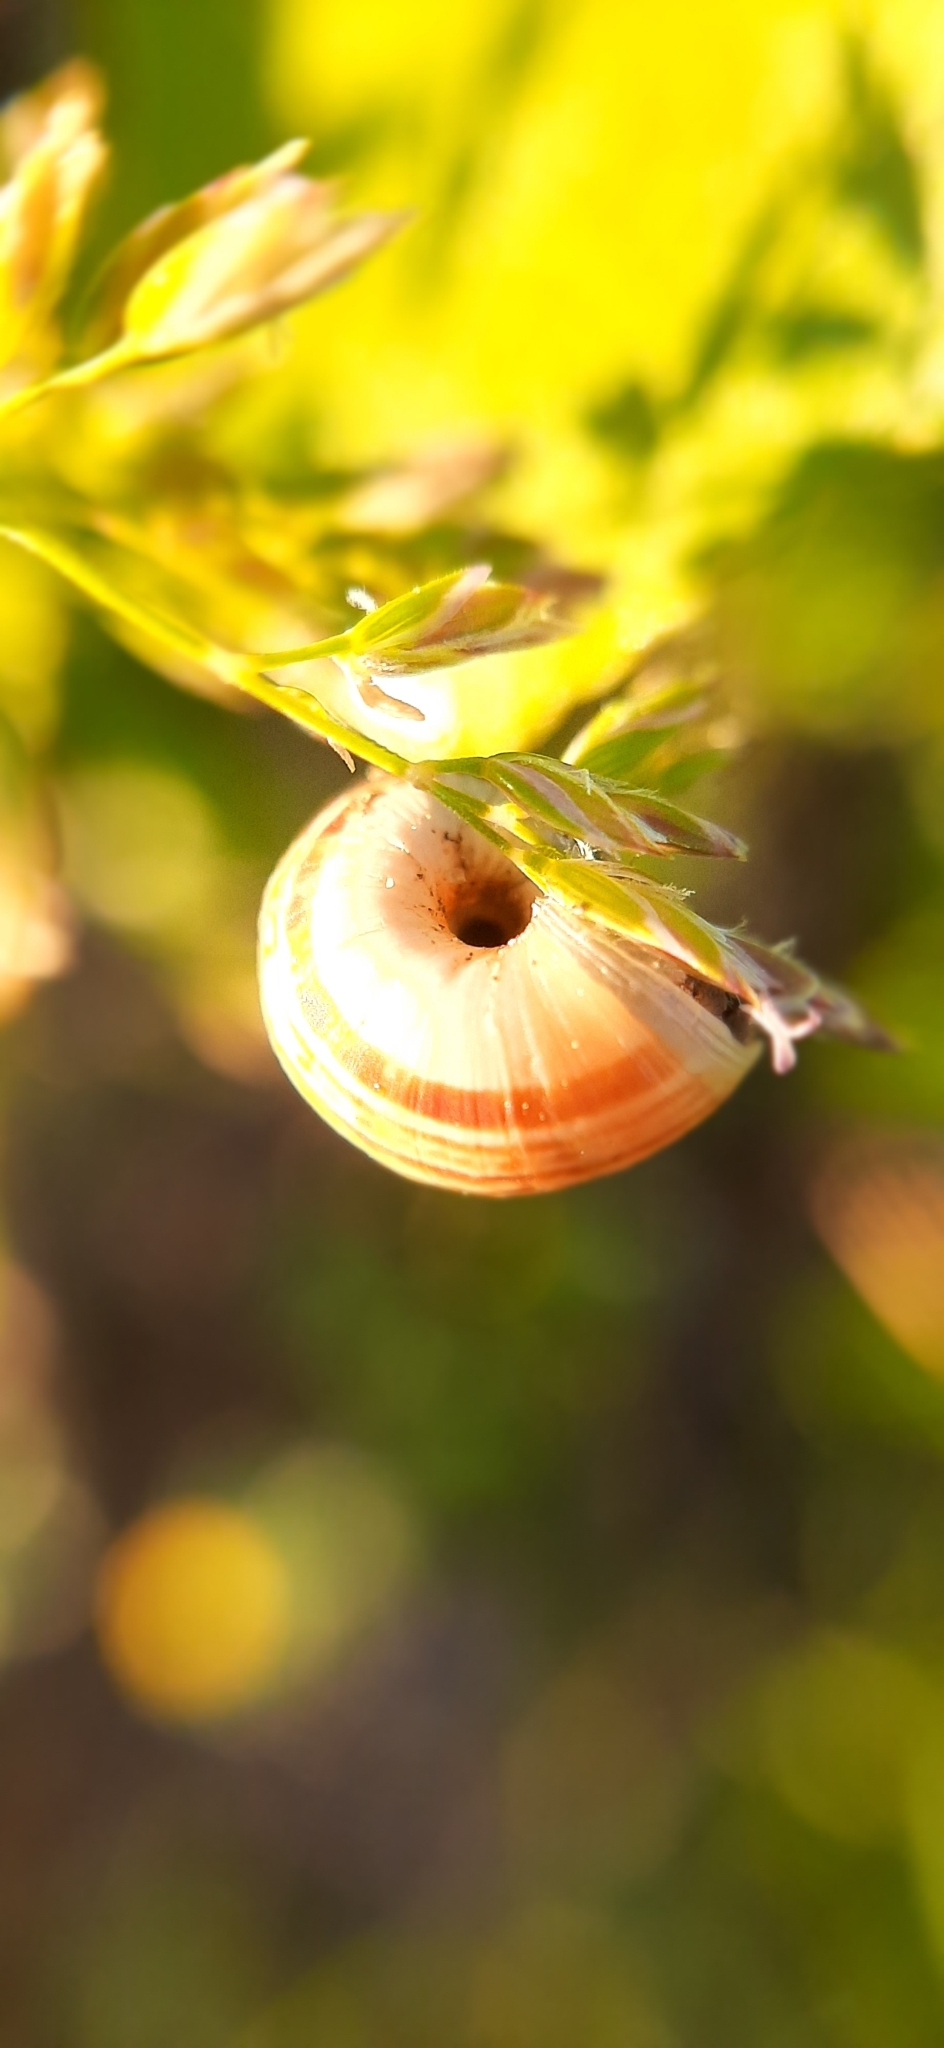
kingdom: Animalia
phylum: Mollusca
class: Gastropoda
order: Stylommatophora
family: Geomitridae
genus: Xerolenta
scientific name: Xerolenta obvia
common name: White heath snail
